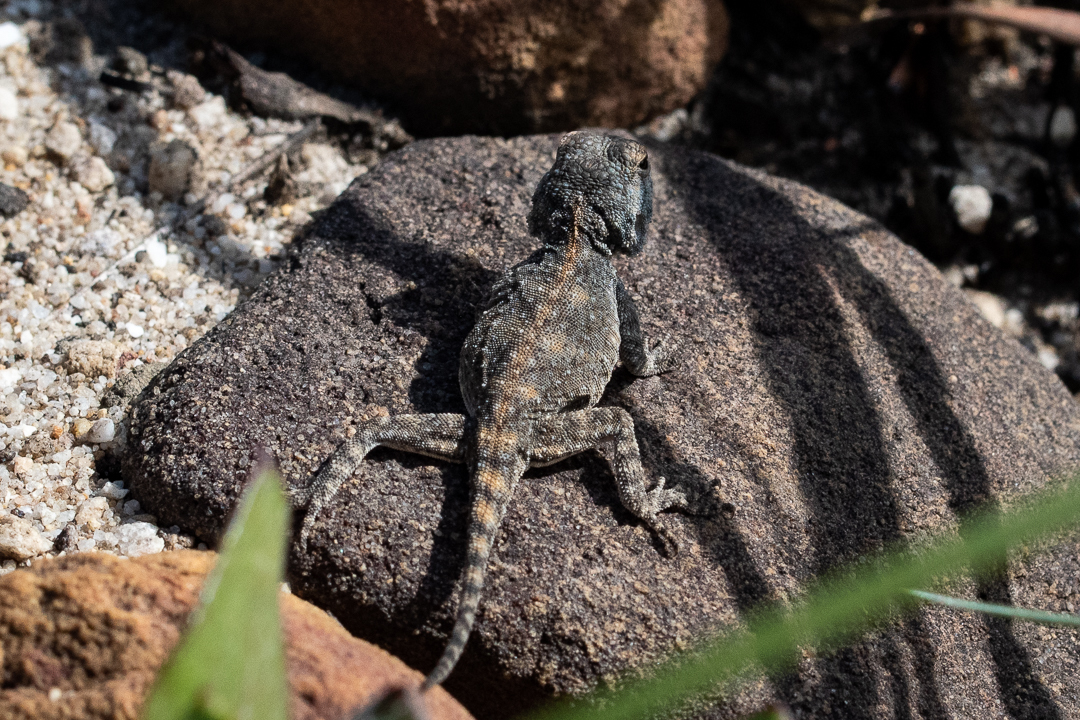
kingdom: Animalia
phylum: Chordata
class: Squamata
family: Agamidae
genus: Agama
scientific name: Agama atra
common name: Southern african rock agama
